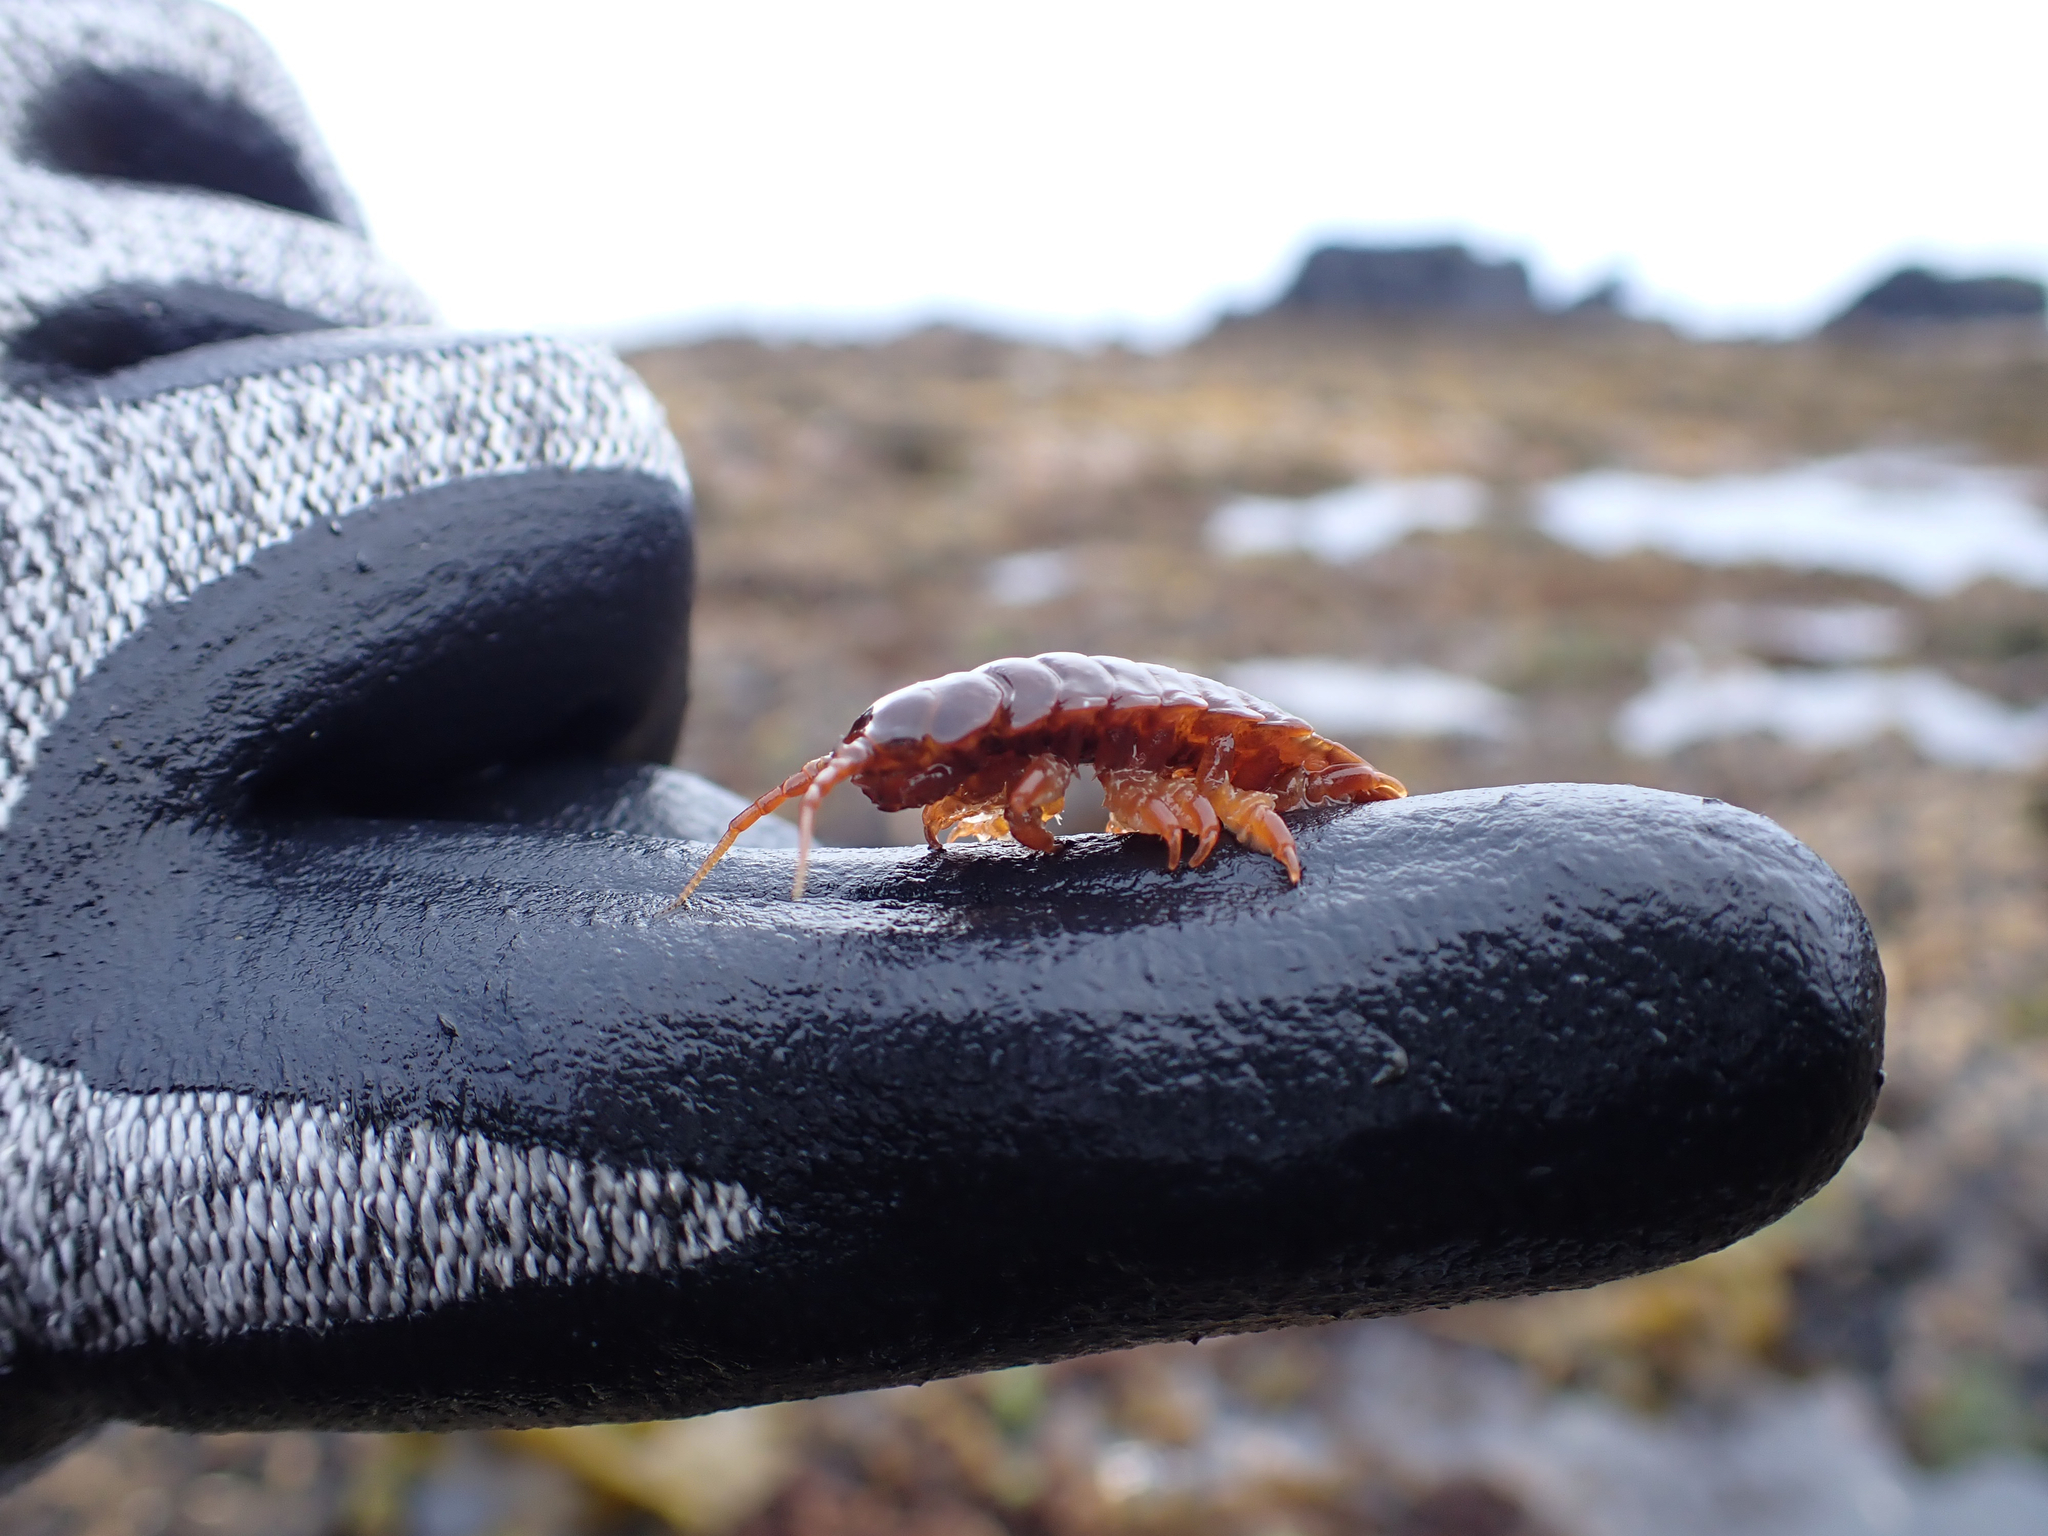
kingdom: Animalia
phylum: Arthropoda
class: Malacostraca
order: Isopoda
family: Idoteidae
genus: Pentidotea
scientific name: Pentidotea wosnesenskii
